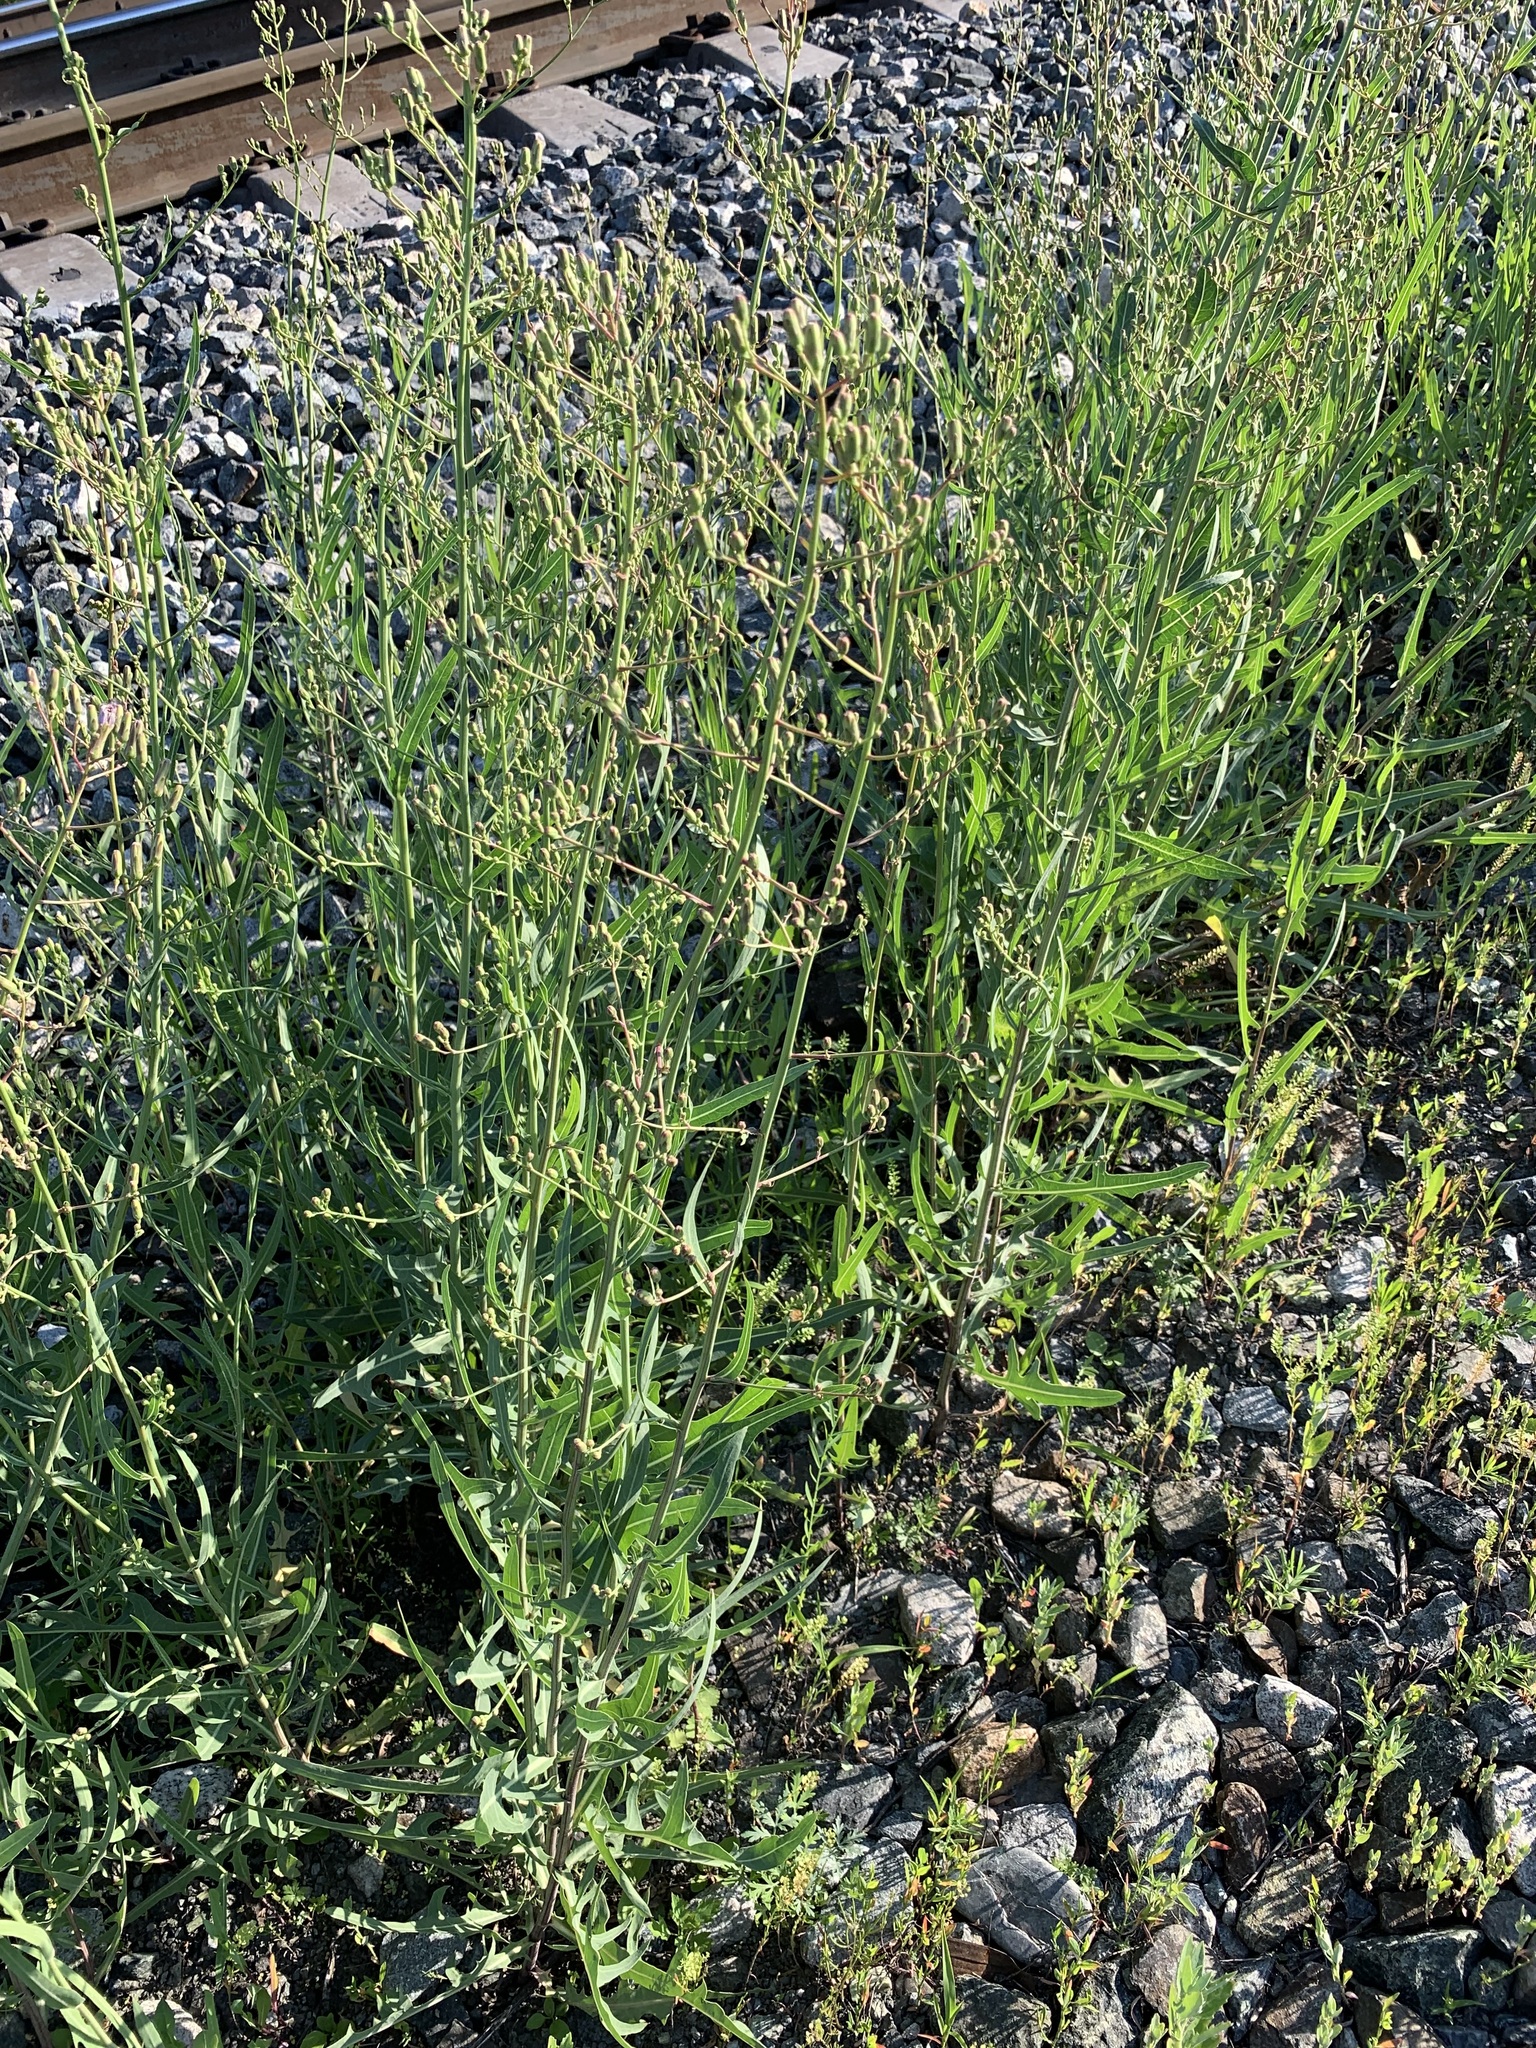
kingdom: Plantae
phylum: Tracheophyta
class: Magnoliopsida
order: Asterales
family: Asteraceae
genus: Lactuca
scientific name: Lactuca tatarica
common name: Blue lettuce
